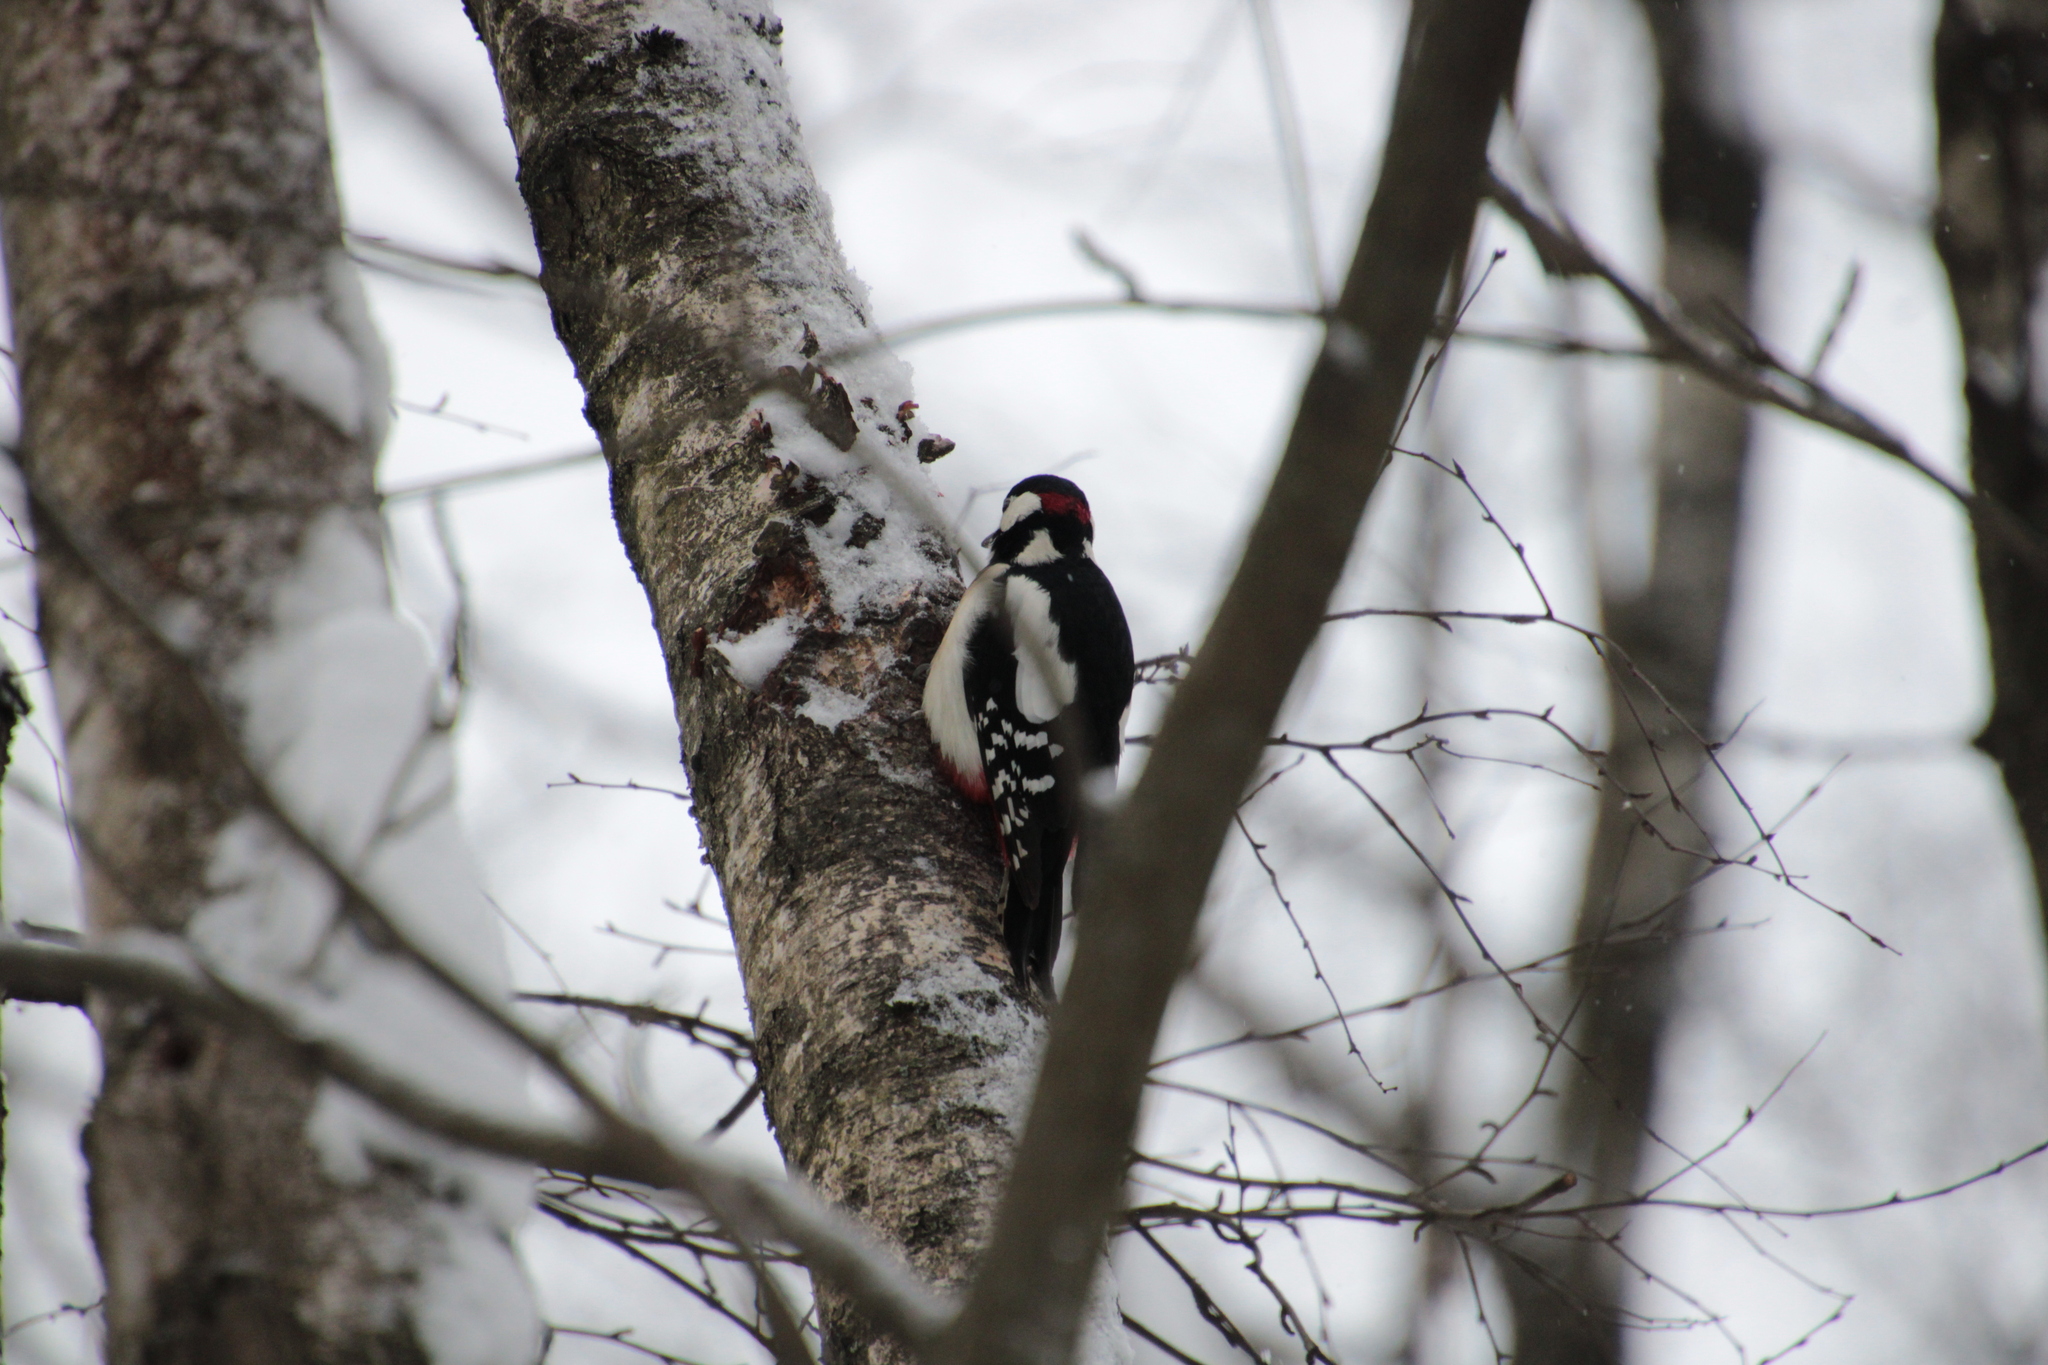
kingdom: Animalia
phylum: Chordata
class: Aves
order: Piciformes
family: Picidae
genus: Dendrocopos
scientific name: Dendrocopos major
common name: Great spotted woodpecker
